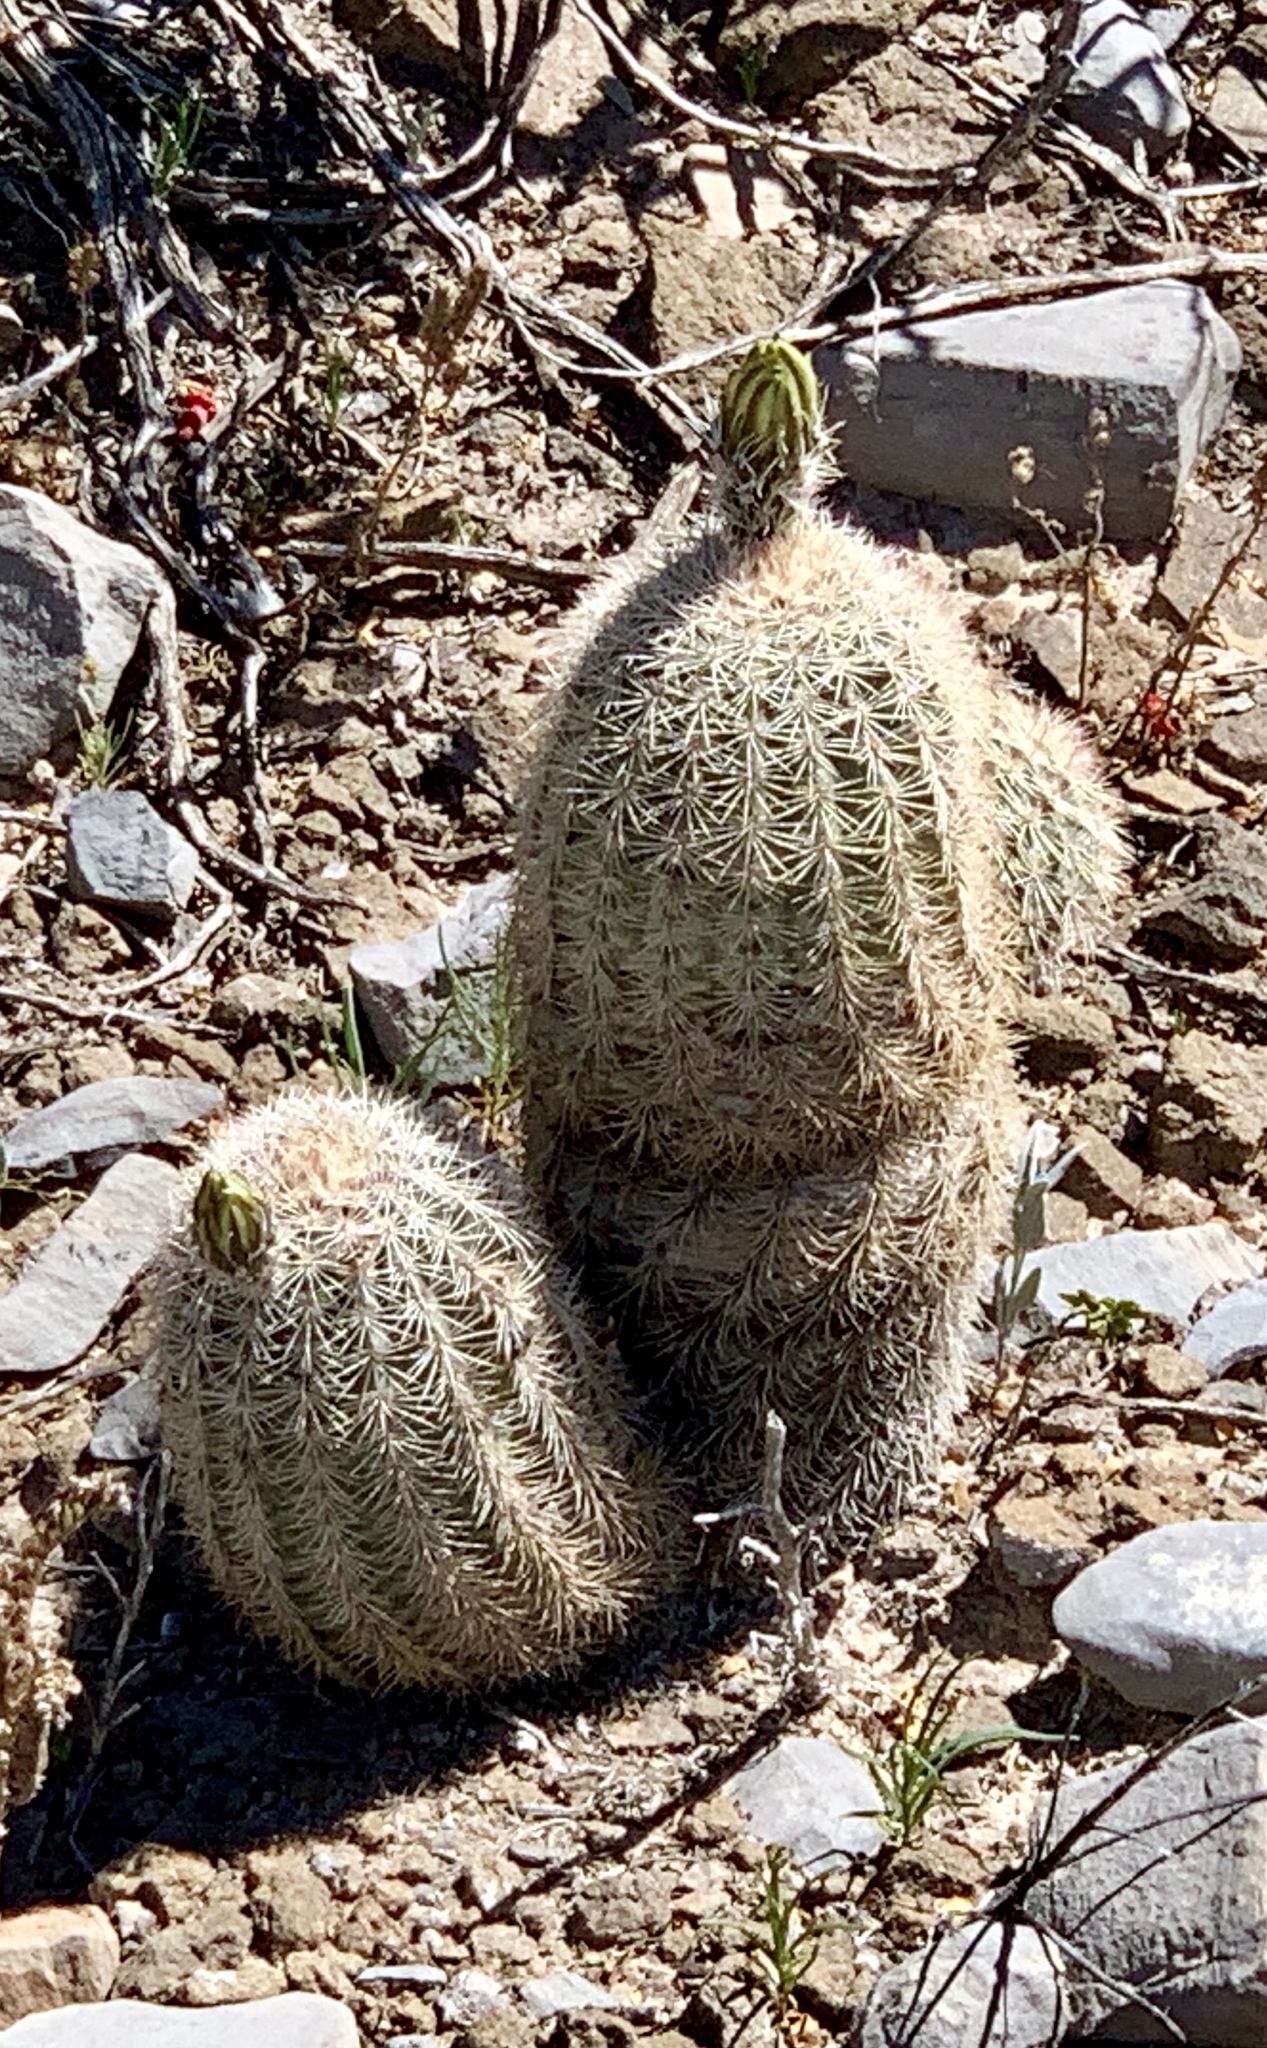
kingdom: Plantae
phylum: Tracheophyta
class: Magnoliopsida
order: Caryophyllales
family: Cactaceae
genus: Echinocereus
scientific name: Echinocereus dasyacanthus
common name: Spiny hedgehog cactus
